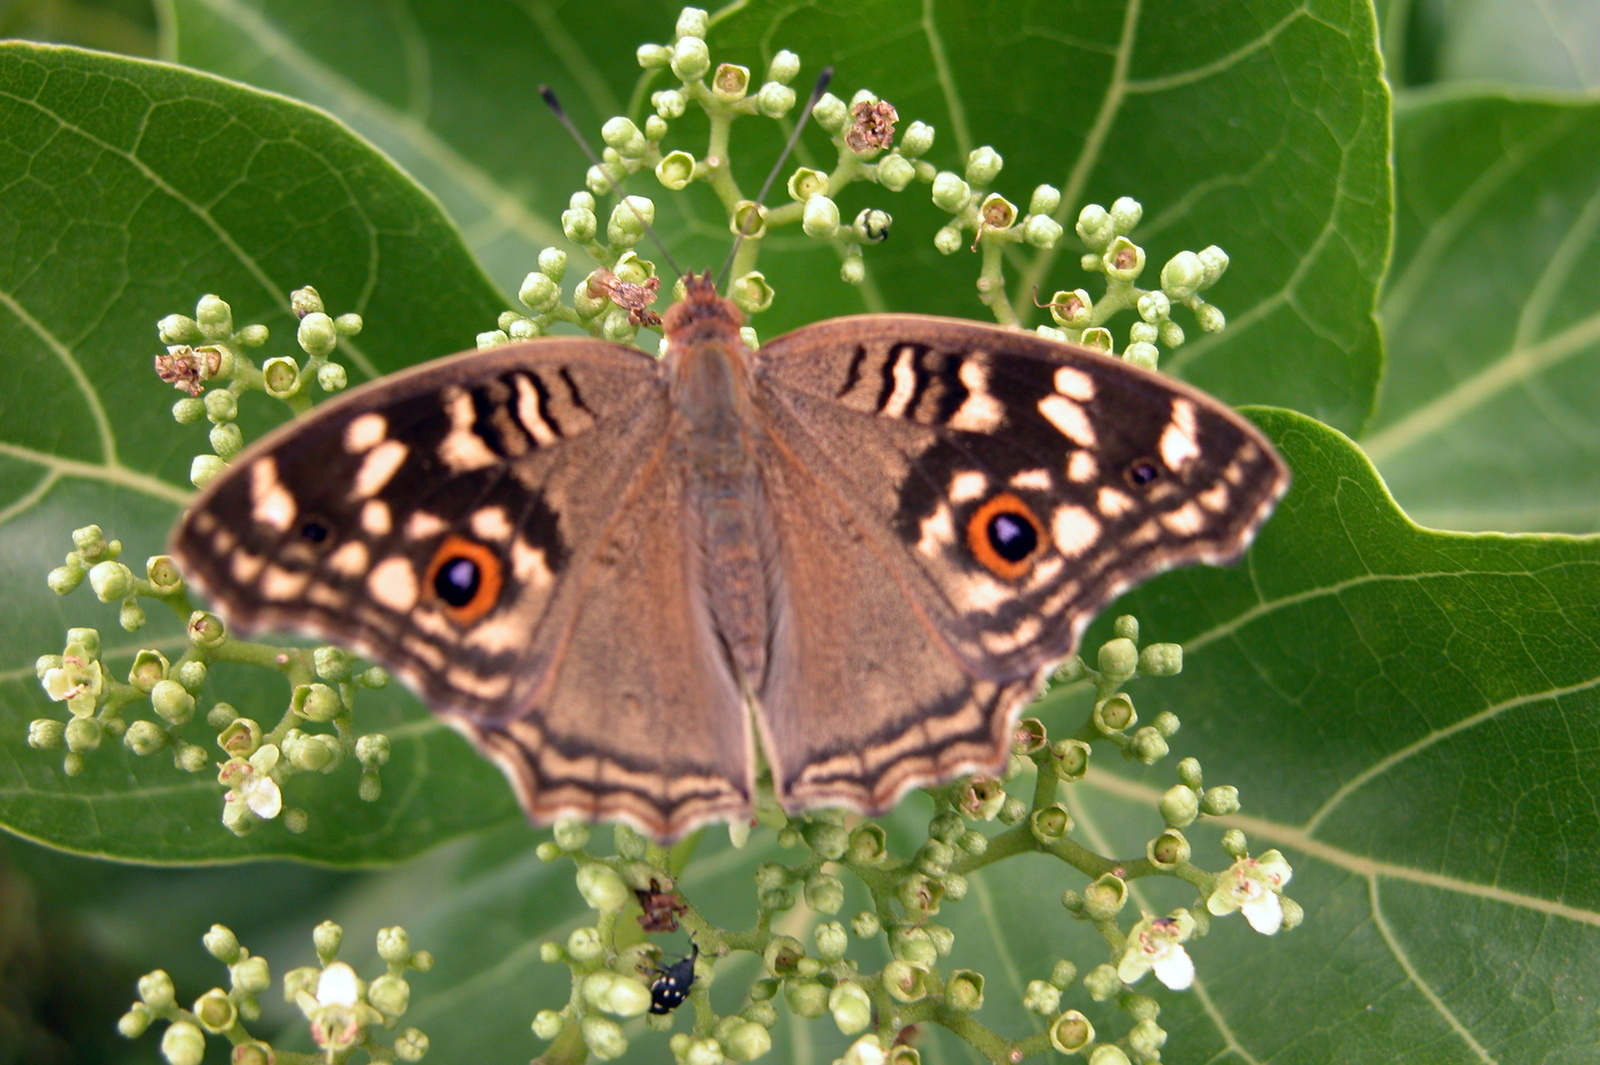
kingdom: Animalia
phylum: Arthropoda
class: Insecta
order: Lepidoptera
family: Nymphalidae
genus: Junonia
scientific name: Junonia lemonias
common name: Lemon pansy
